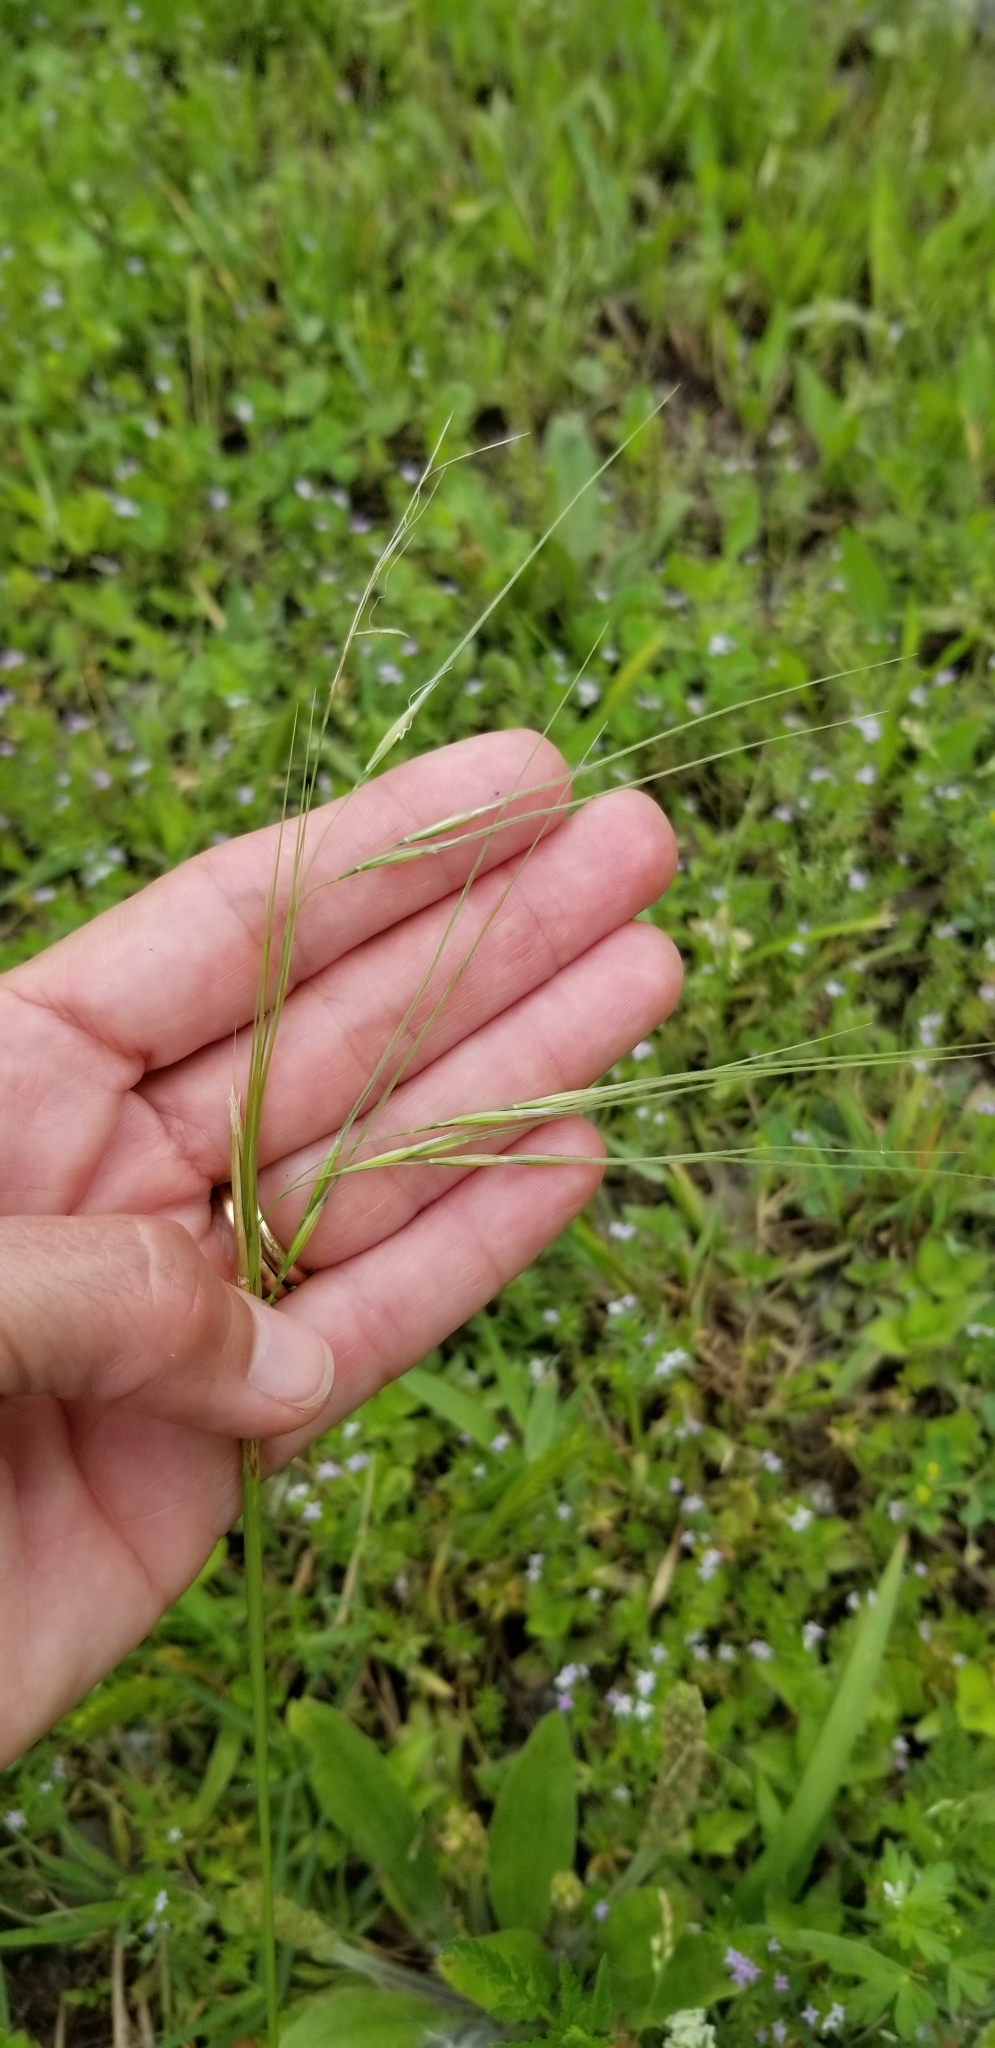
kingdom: Plantae
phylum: Tracheophyta
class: Liliopsida
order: Poales
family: Poaceae
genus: Nassella
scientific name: Nassella leucotricha
